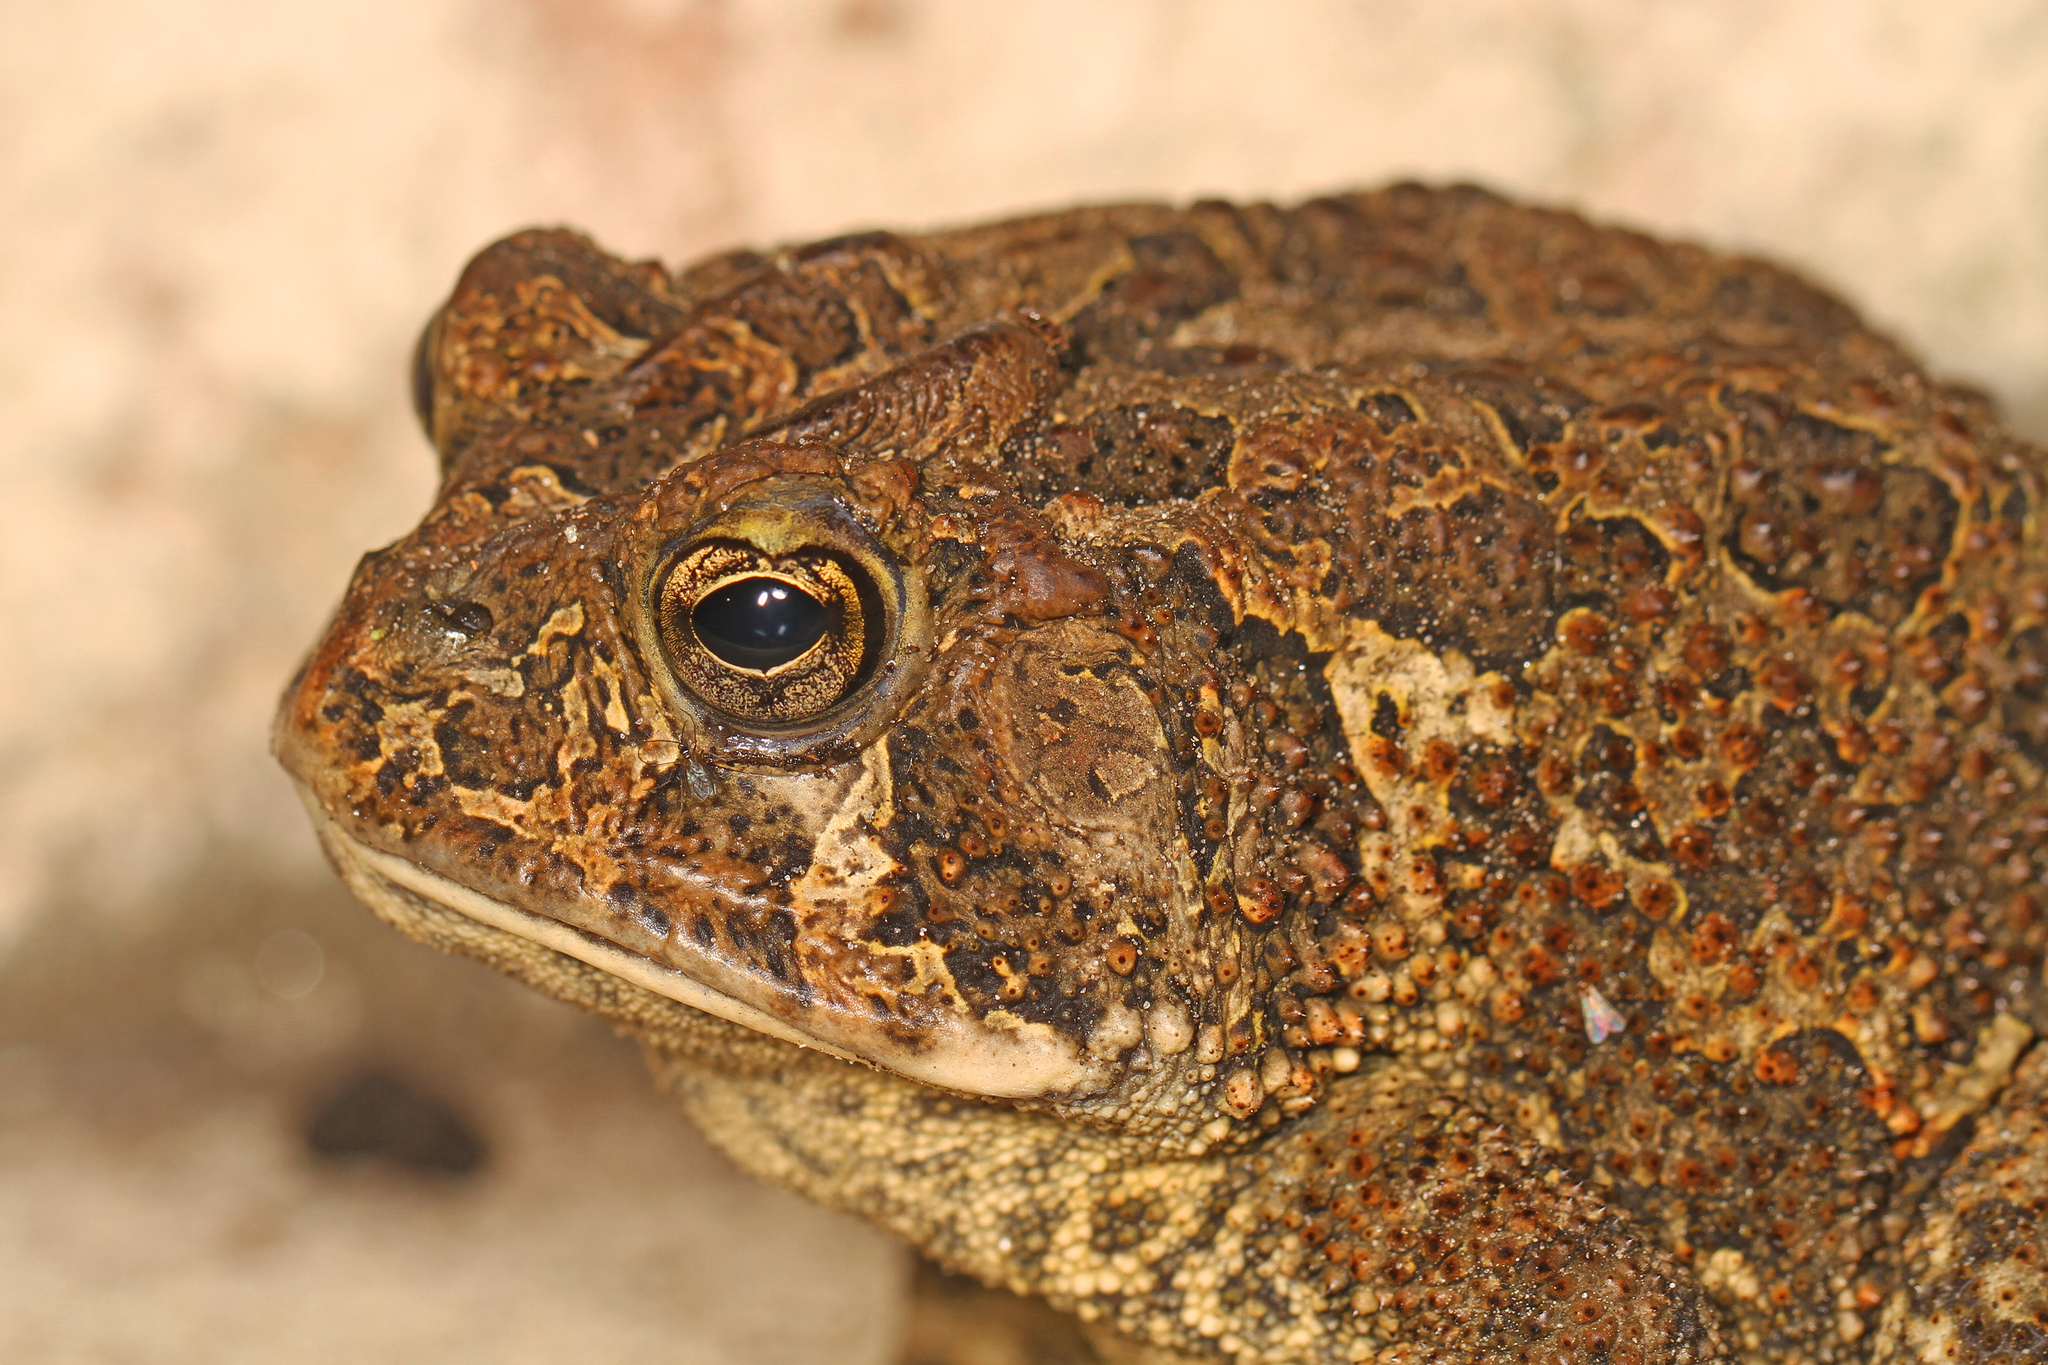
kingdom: Animalia
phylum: Chordata
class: Amphibia
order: Anura
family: Bufonidae
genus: Anaxyrus
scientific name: Anaxyrus terrestris
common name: Southern toad
